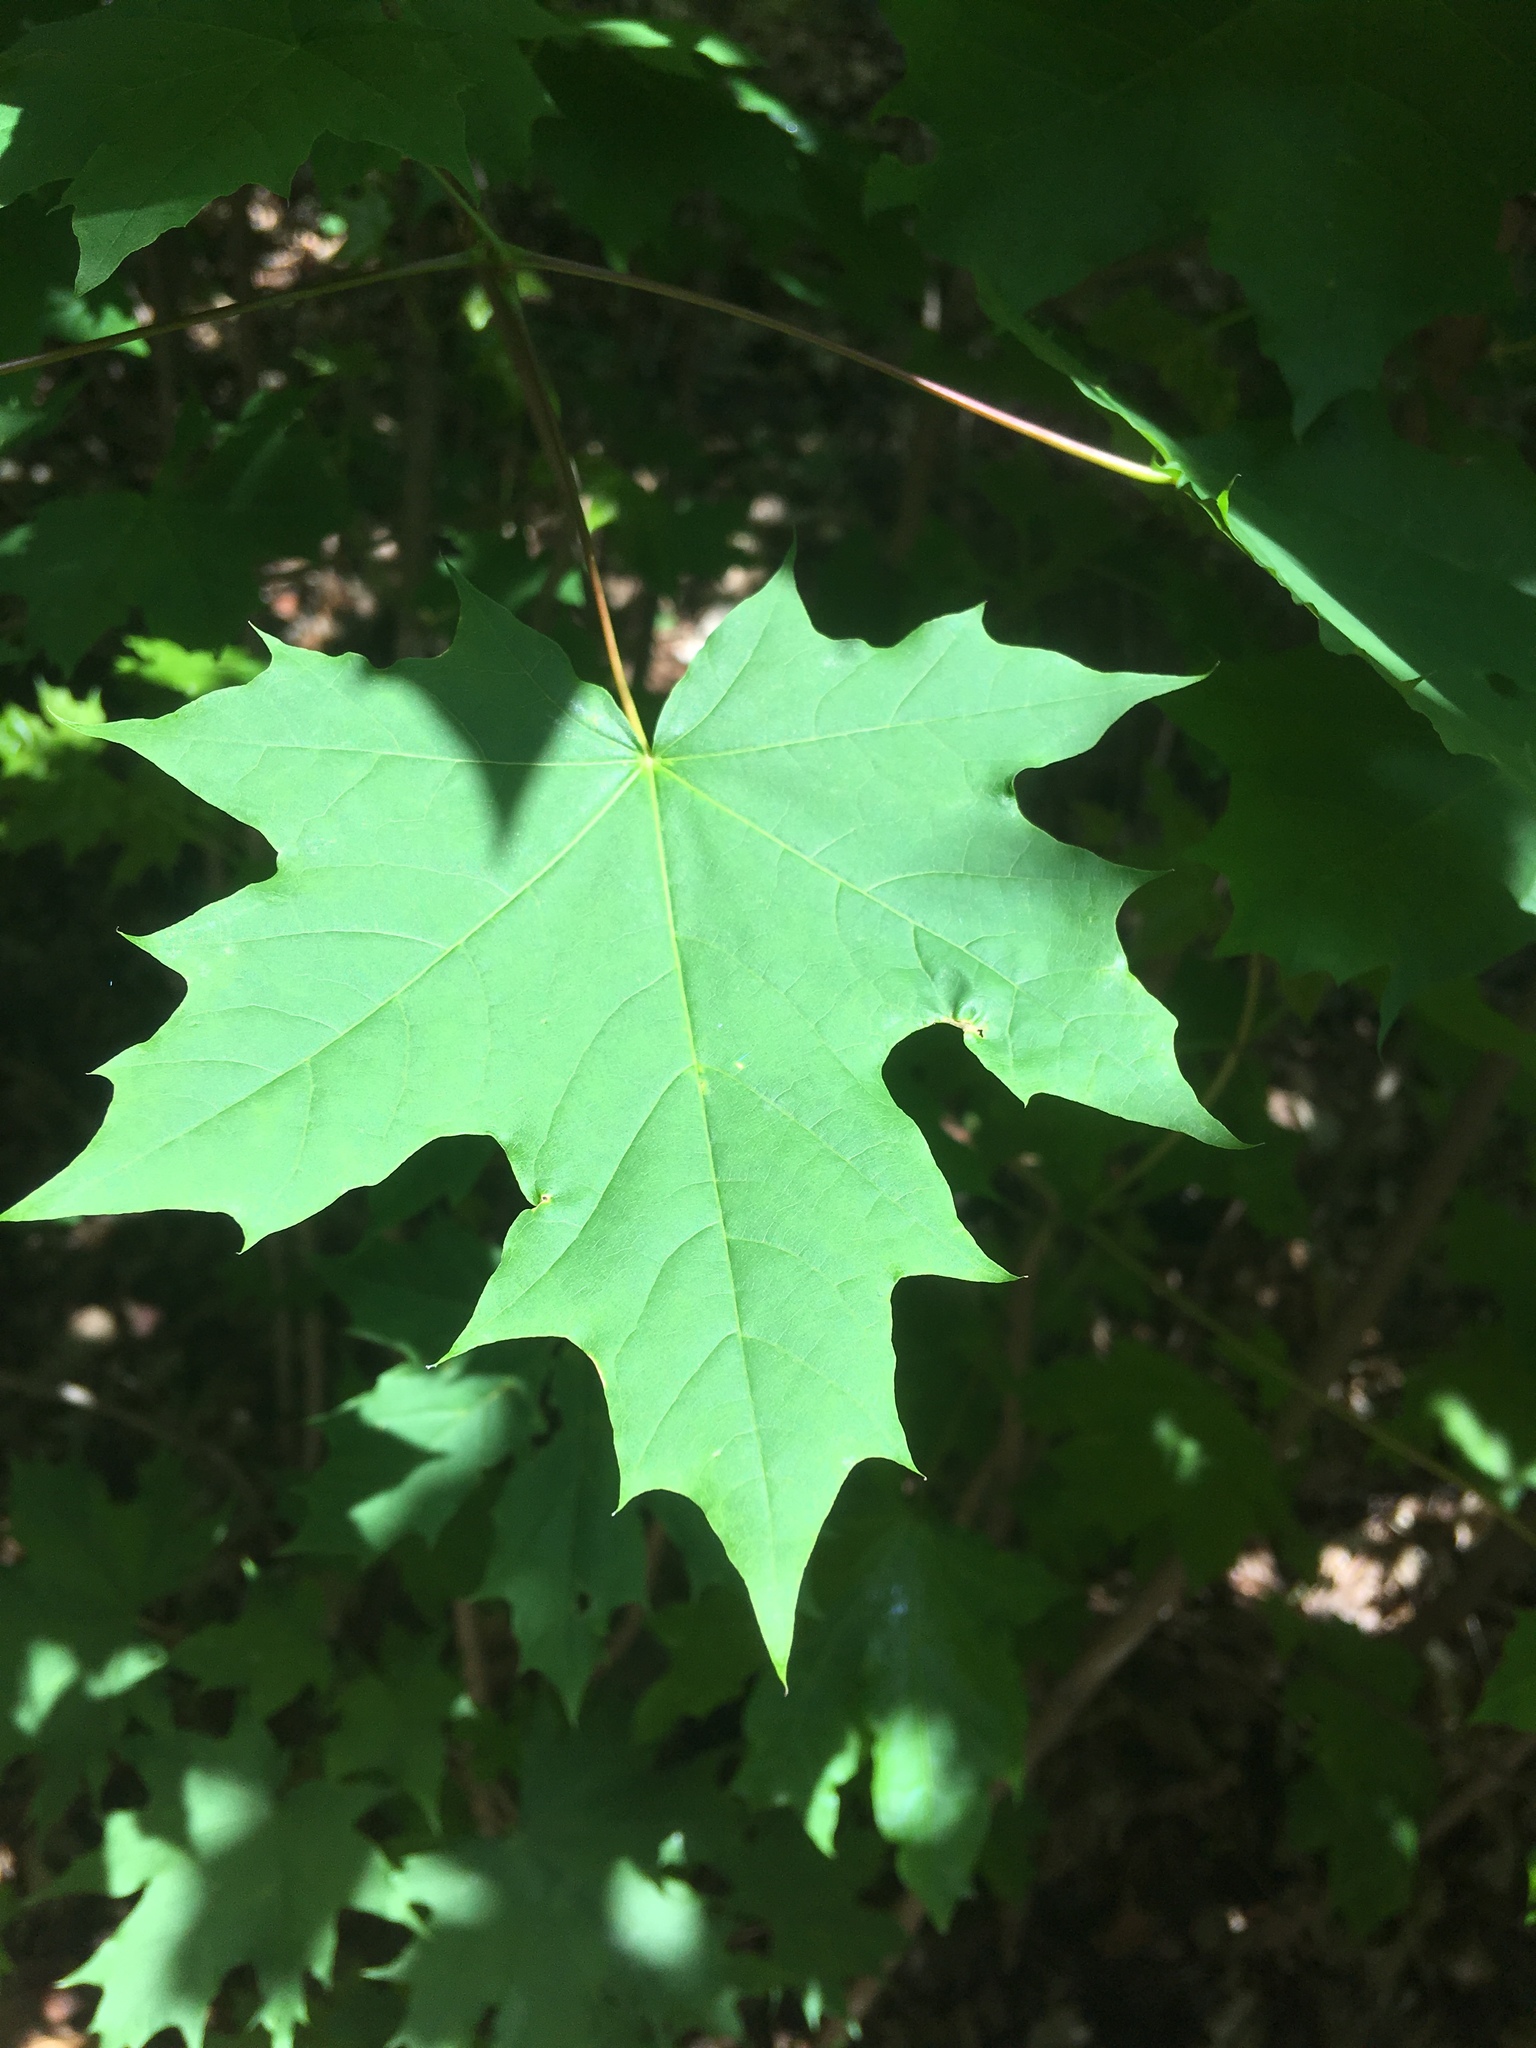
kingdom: Plantae
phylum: Tracheophyta
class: Magnoliopsida
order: Sapindales
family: Sapindaceae
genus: Acer
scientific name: Acer platanoides
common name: Norway maple
